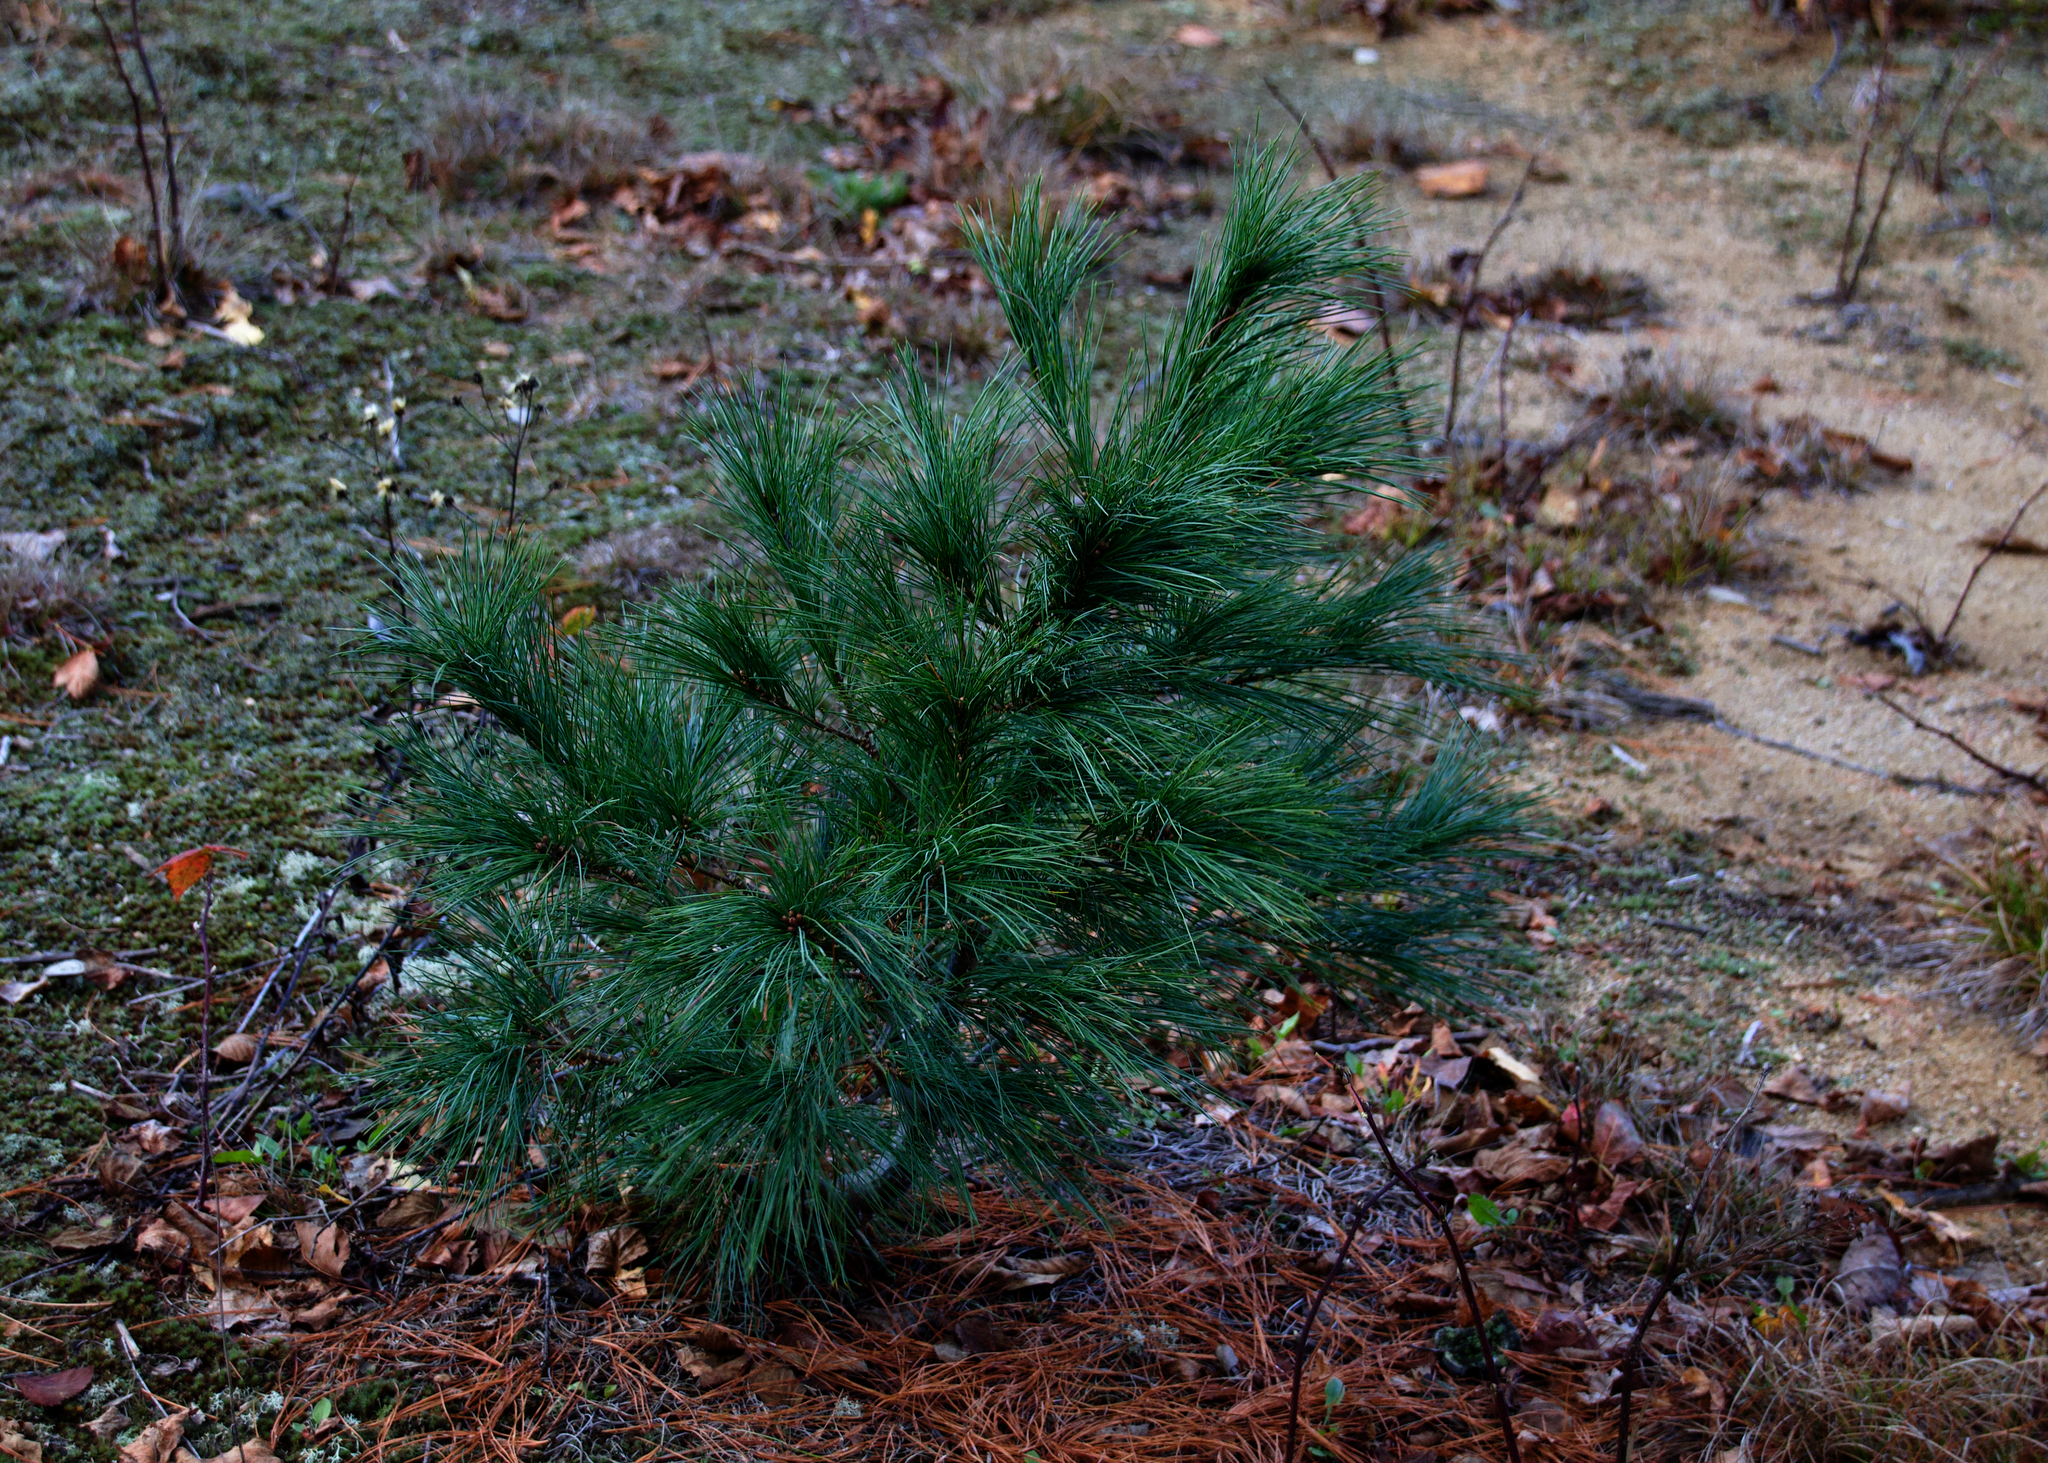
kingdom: Plantae
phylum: Tracheophyta
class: Pinopsida
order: Pinales
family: Pinaceae
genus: Pinus
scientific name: Pinus strobus
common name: Weymouth pine
